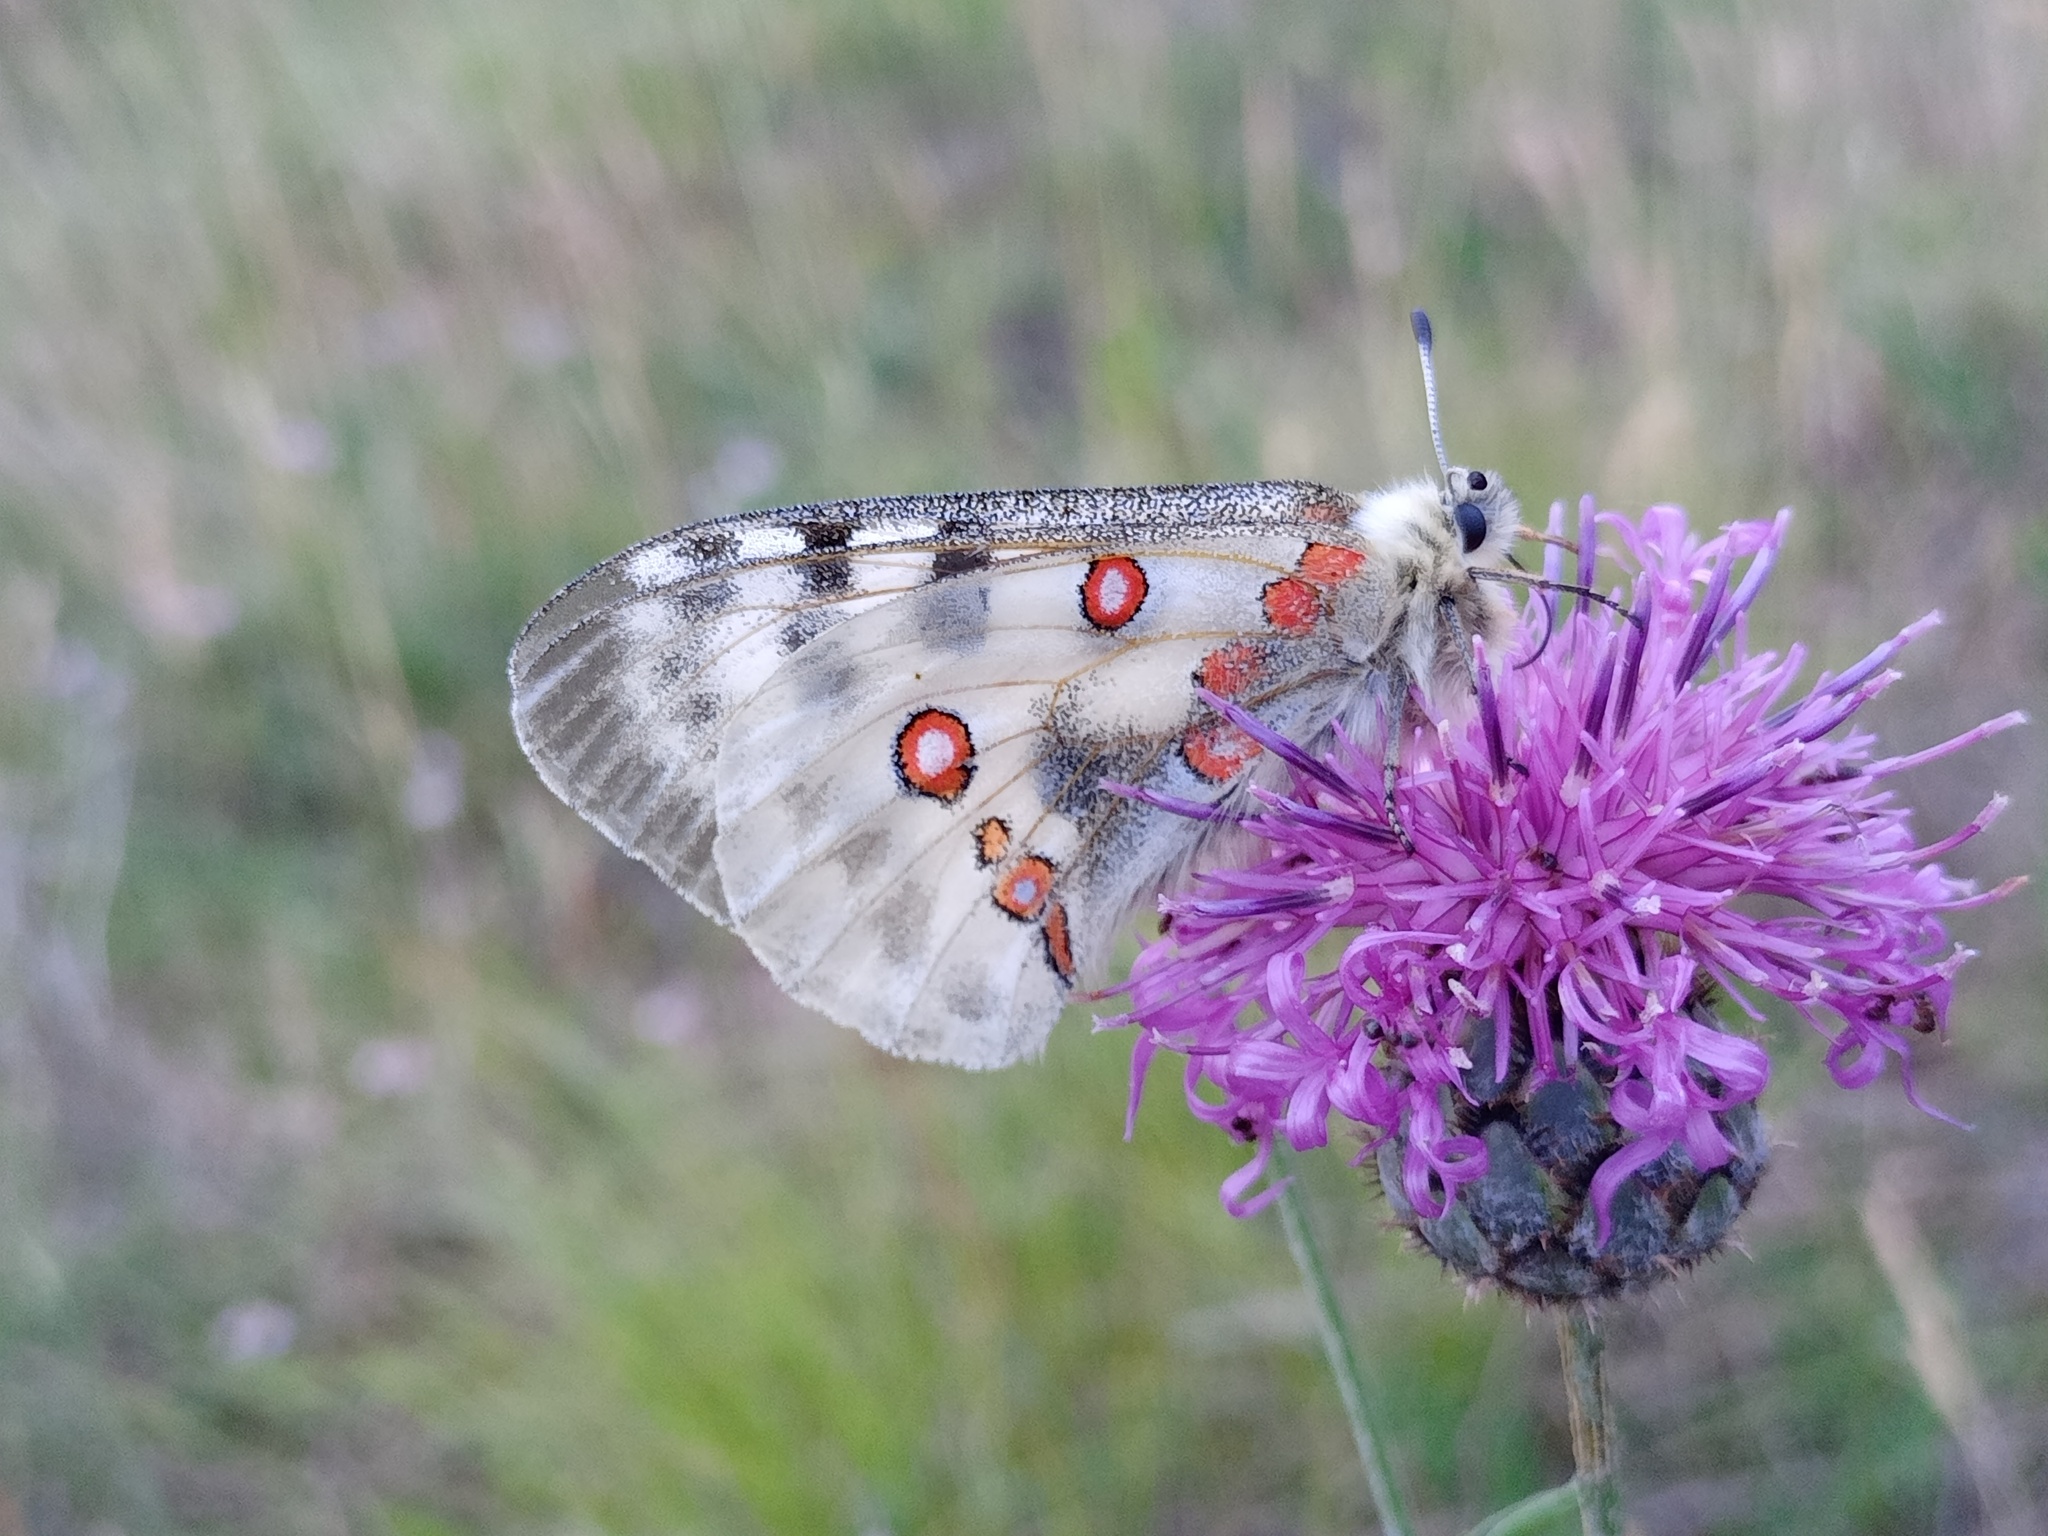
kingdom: Animalia
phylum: Arthropoda
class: Insecta
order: Lepidoptera
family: Papilionidae
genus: Parnassius
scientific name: Parnassius apollo
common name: Apollo
